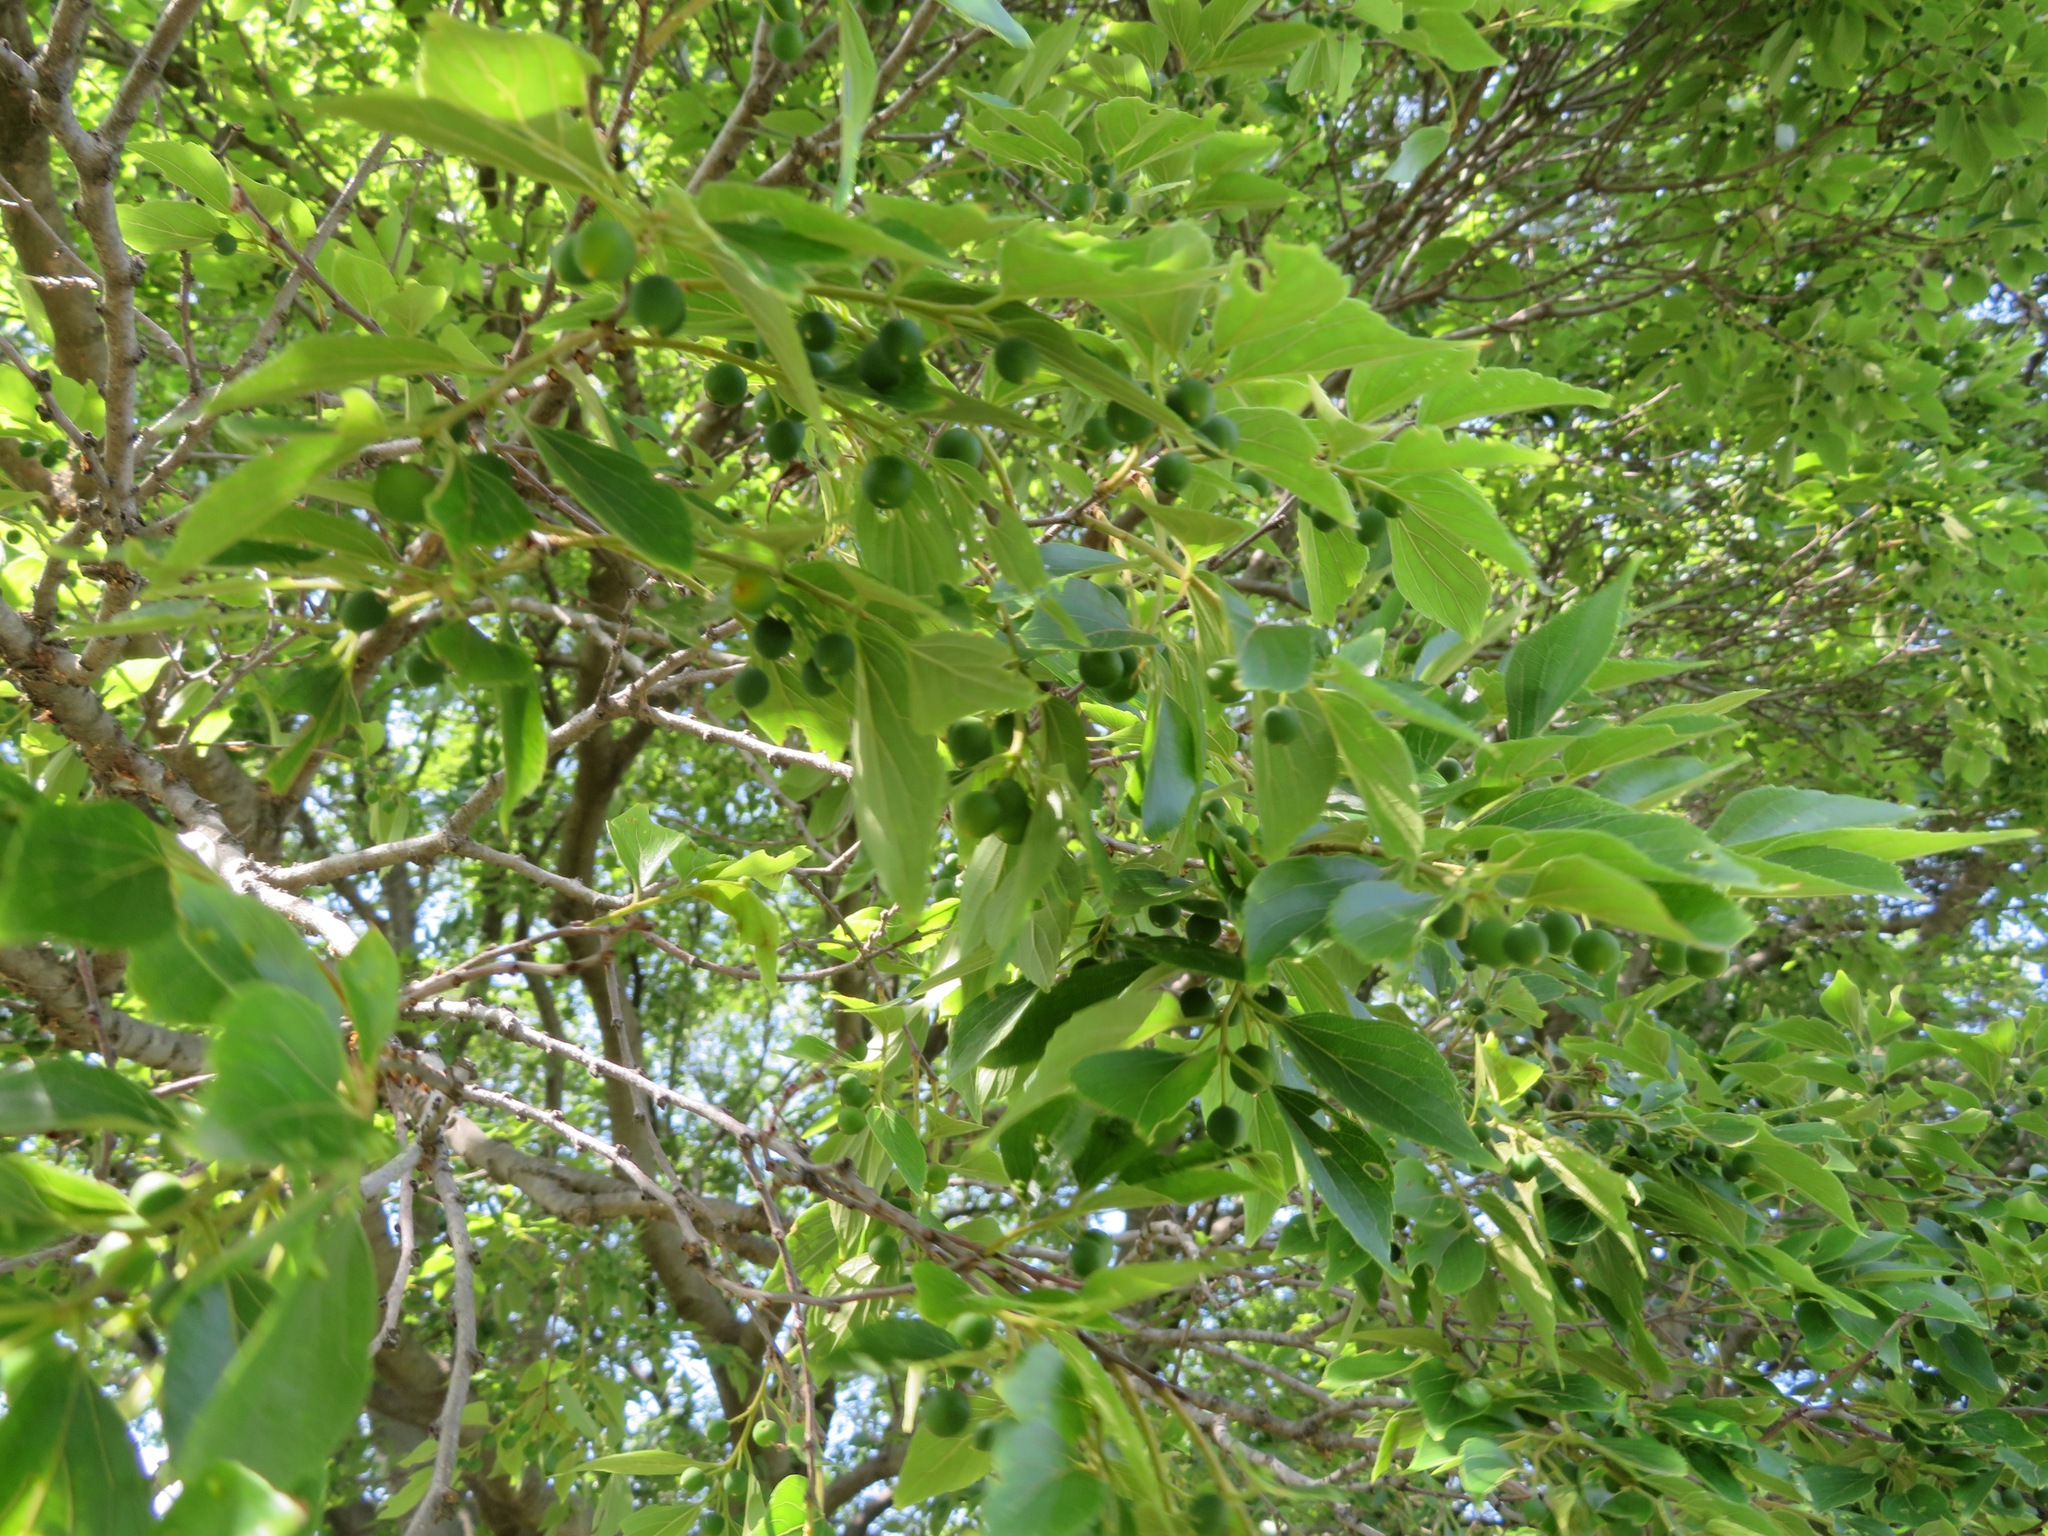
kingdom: Plantae
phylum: Tracheophyta
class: Magnoliopsida
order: Rosales
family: Cannabaceae
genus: Celtis
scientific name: Celtis sinensis
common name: Chinese hackberry
